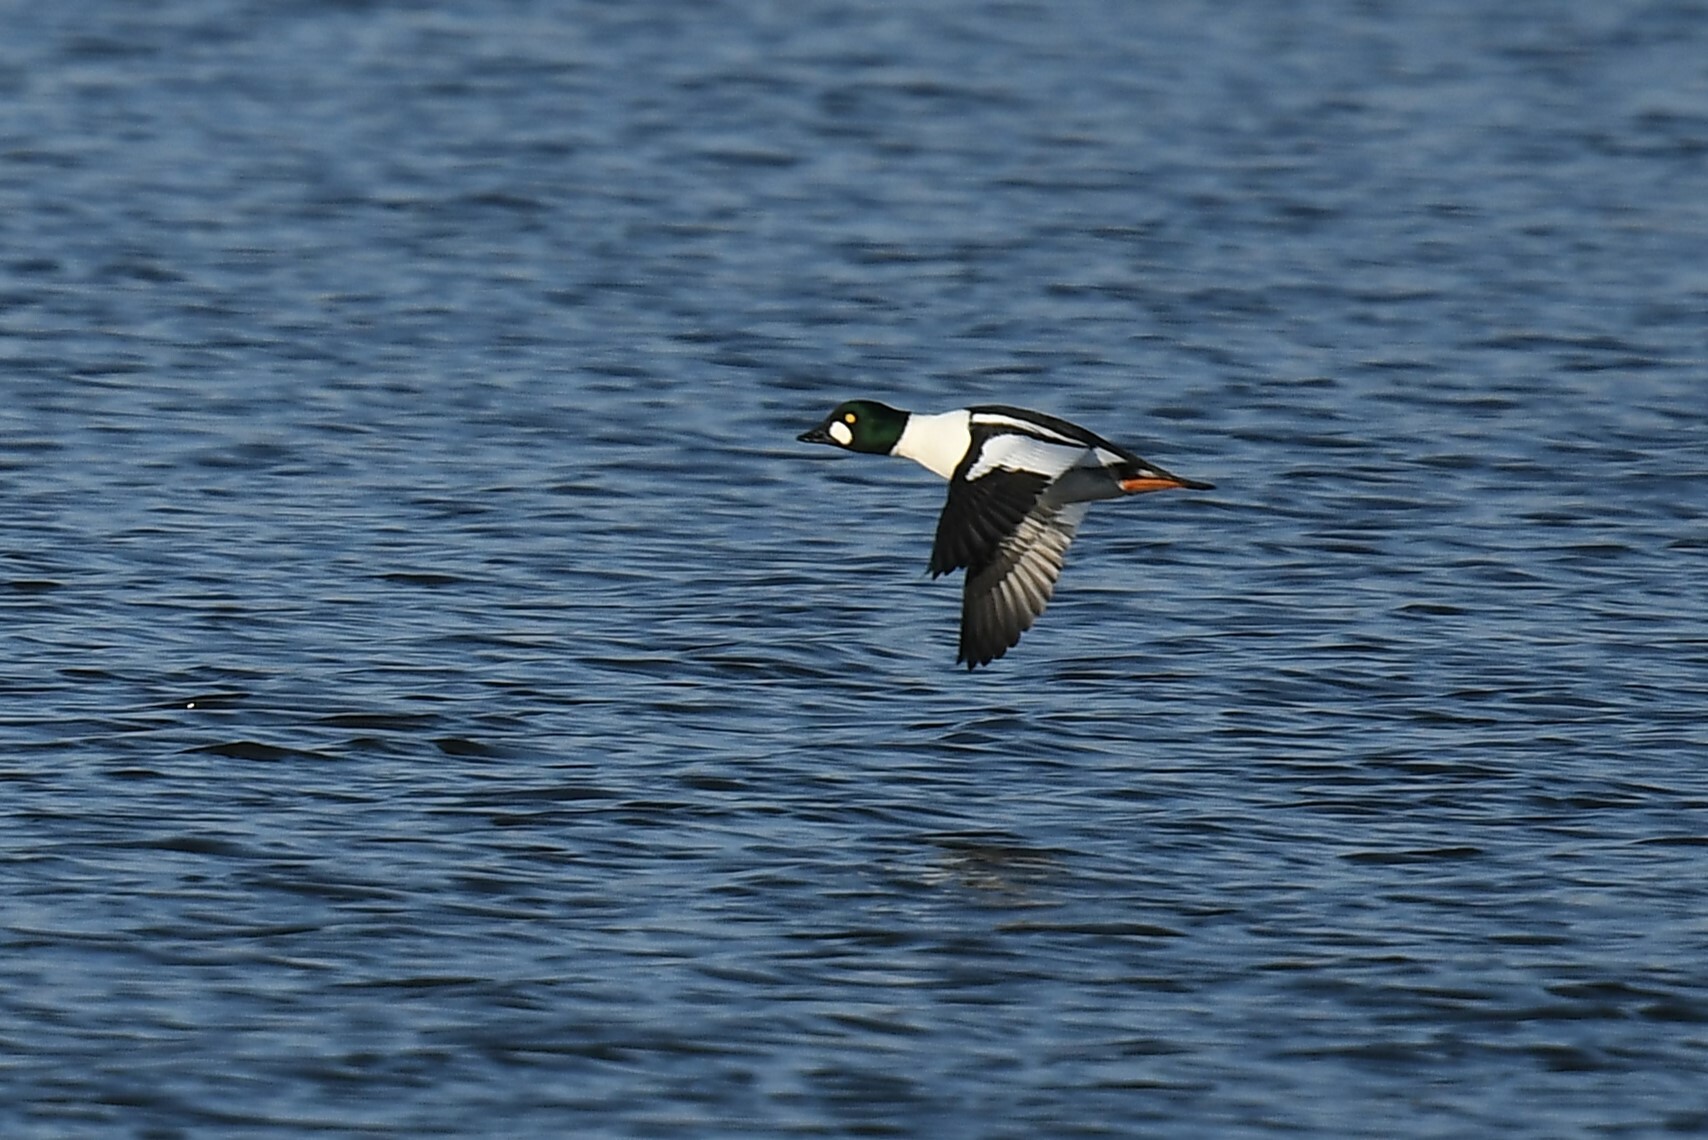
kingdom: Animalia
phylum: Chordata
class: Aves
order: Anseriformes
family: Anatidae
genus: Bucephala
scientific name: Bucephala clangula
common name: Common goldeneye
